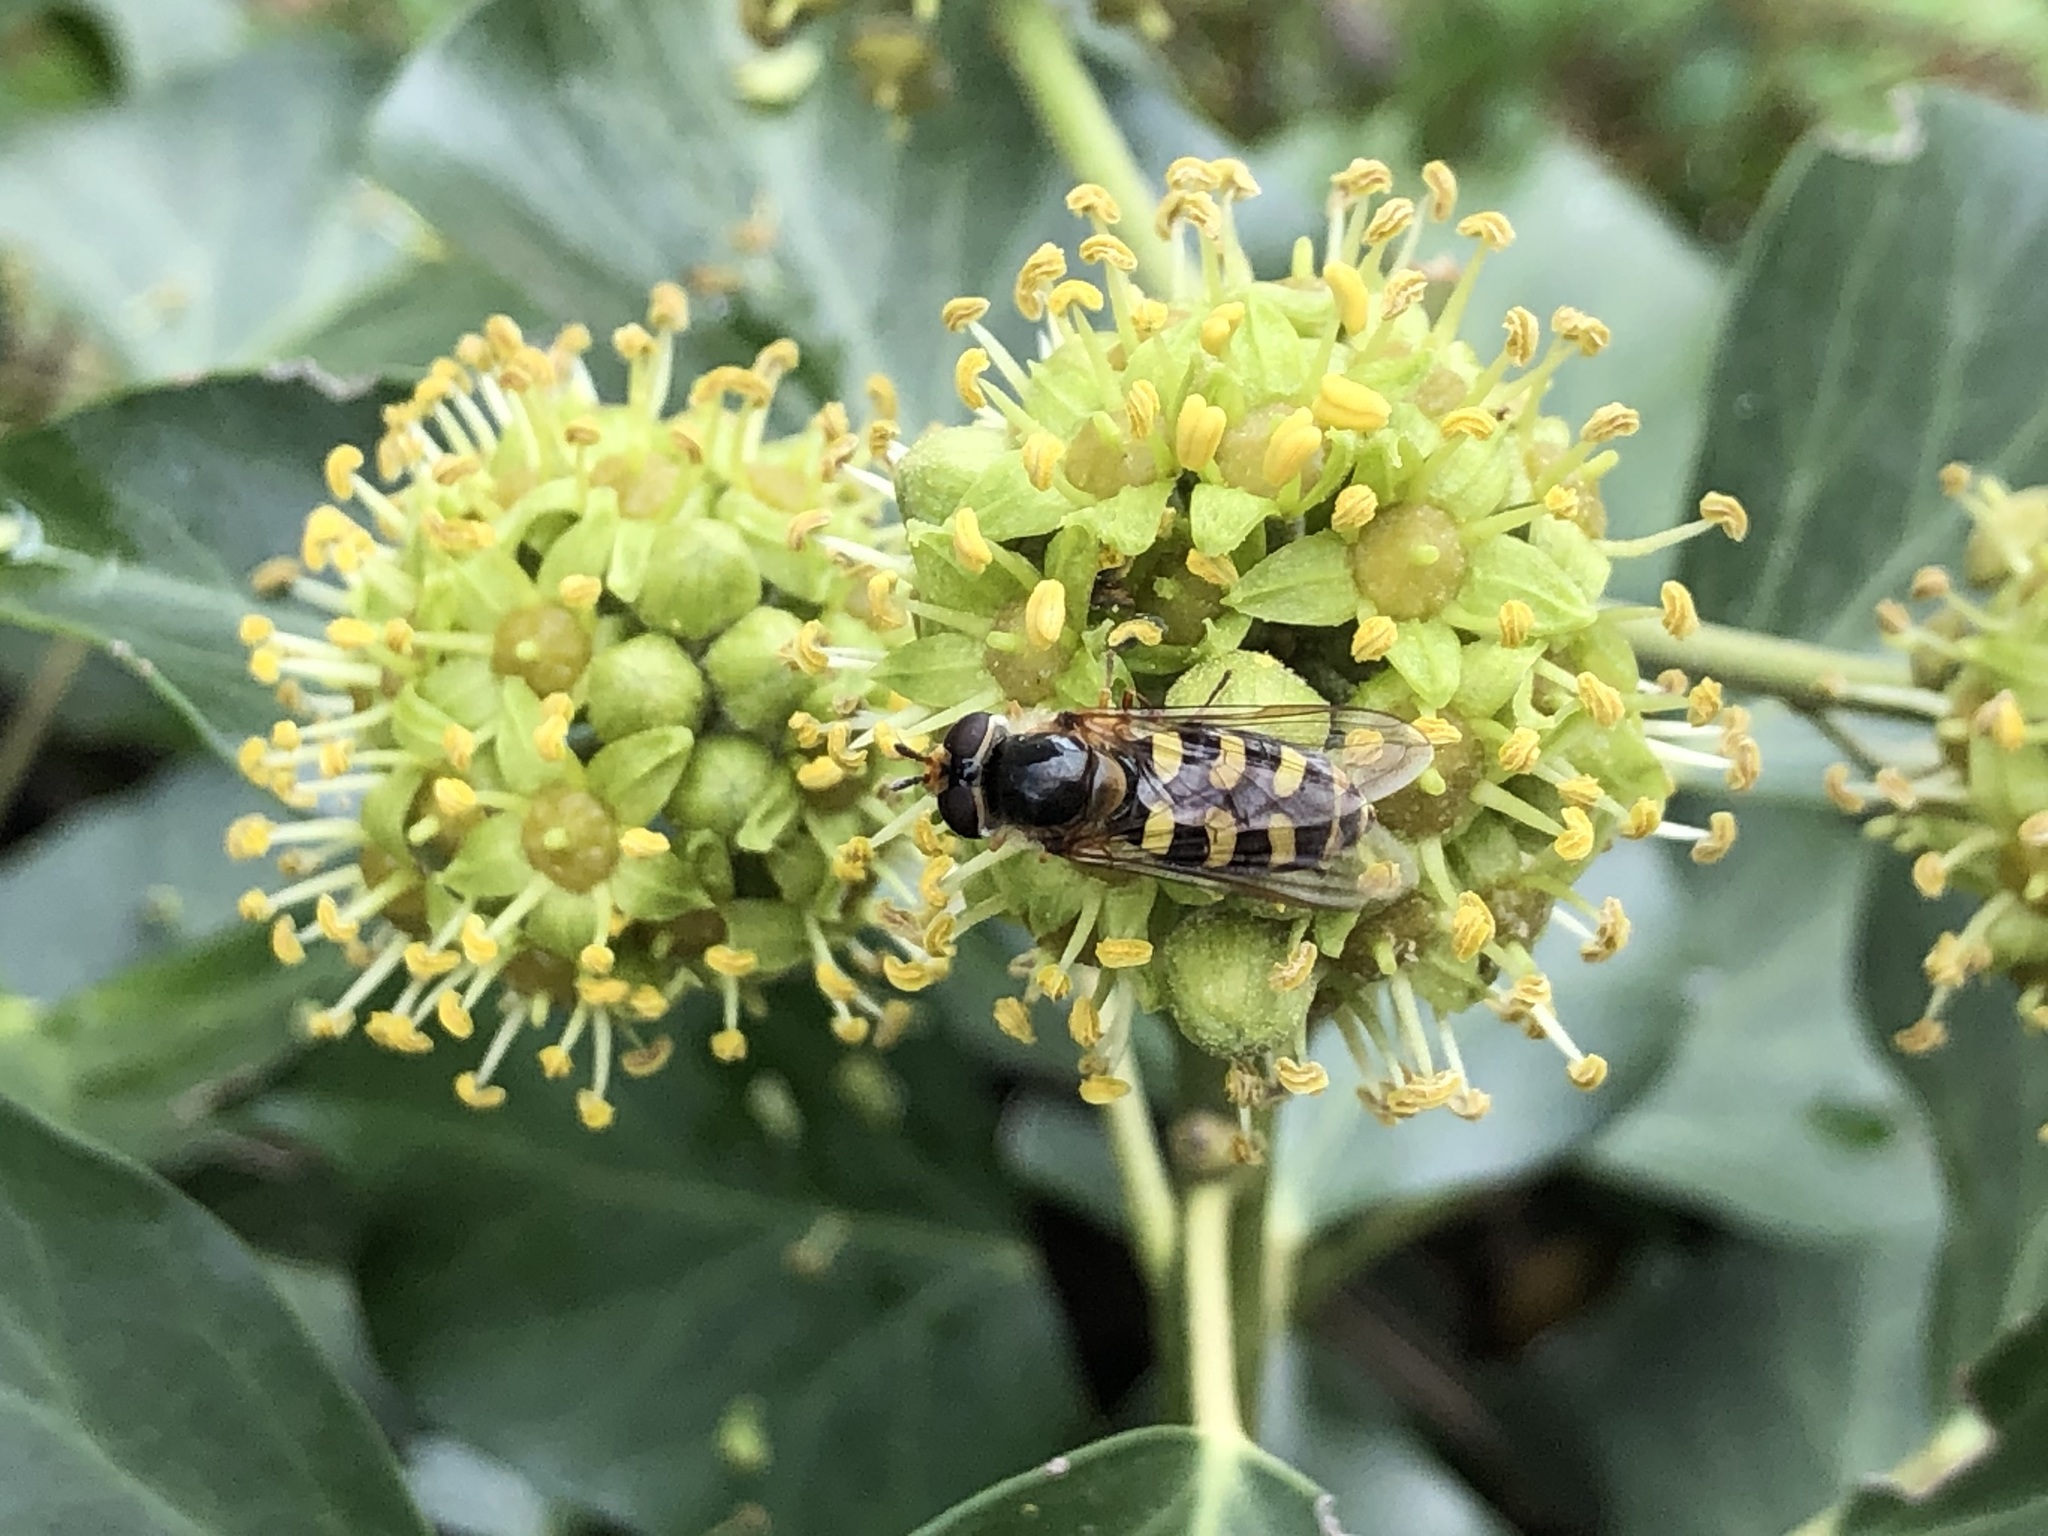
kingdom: Animalia
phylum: Arthropoda
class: Insecta
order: Diptera
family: Syrphidae
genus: Lapposyrphus
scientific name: Lapposyrphus lapponicus
